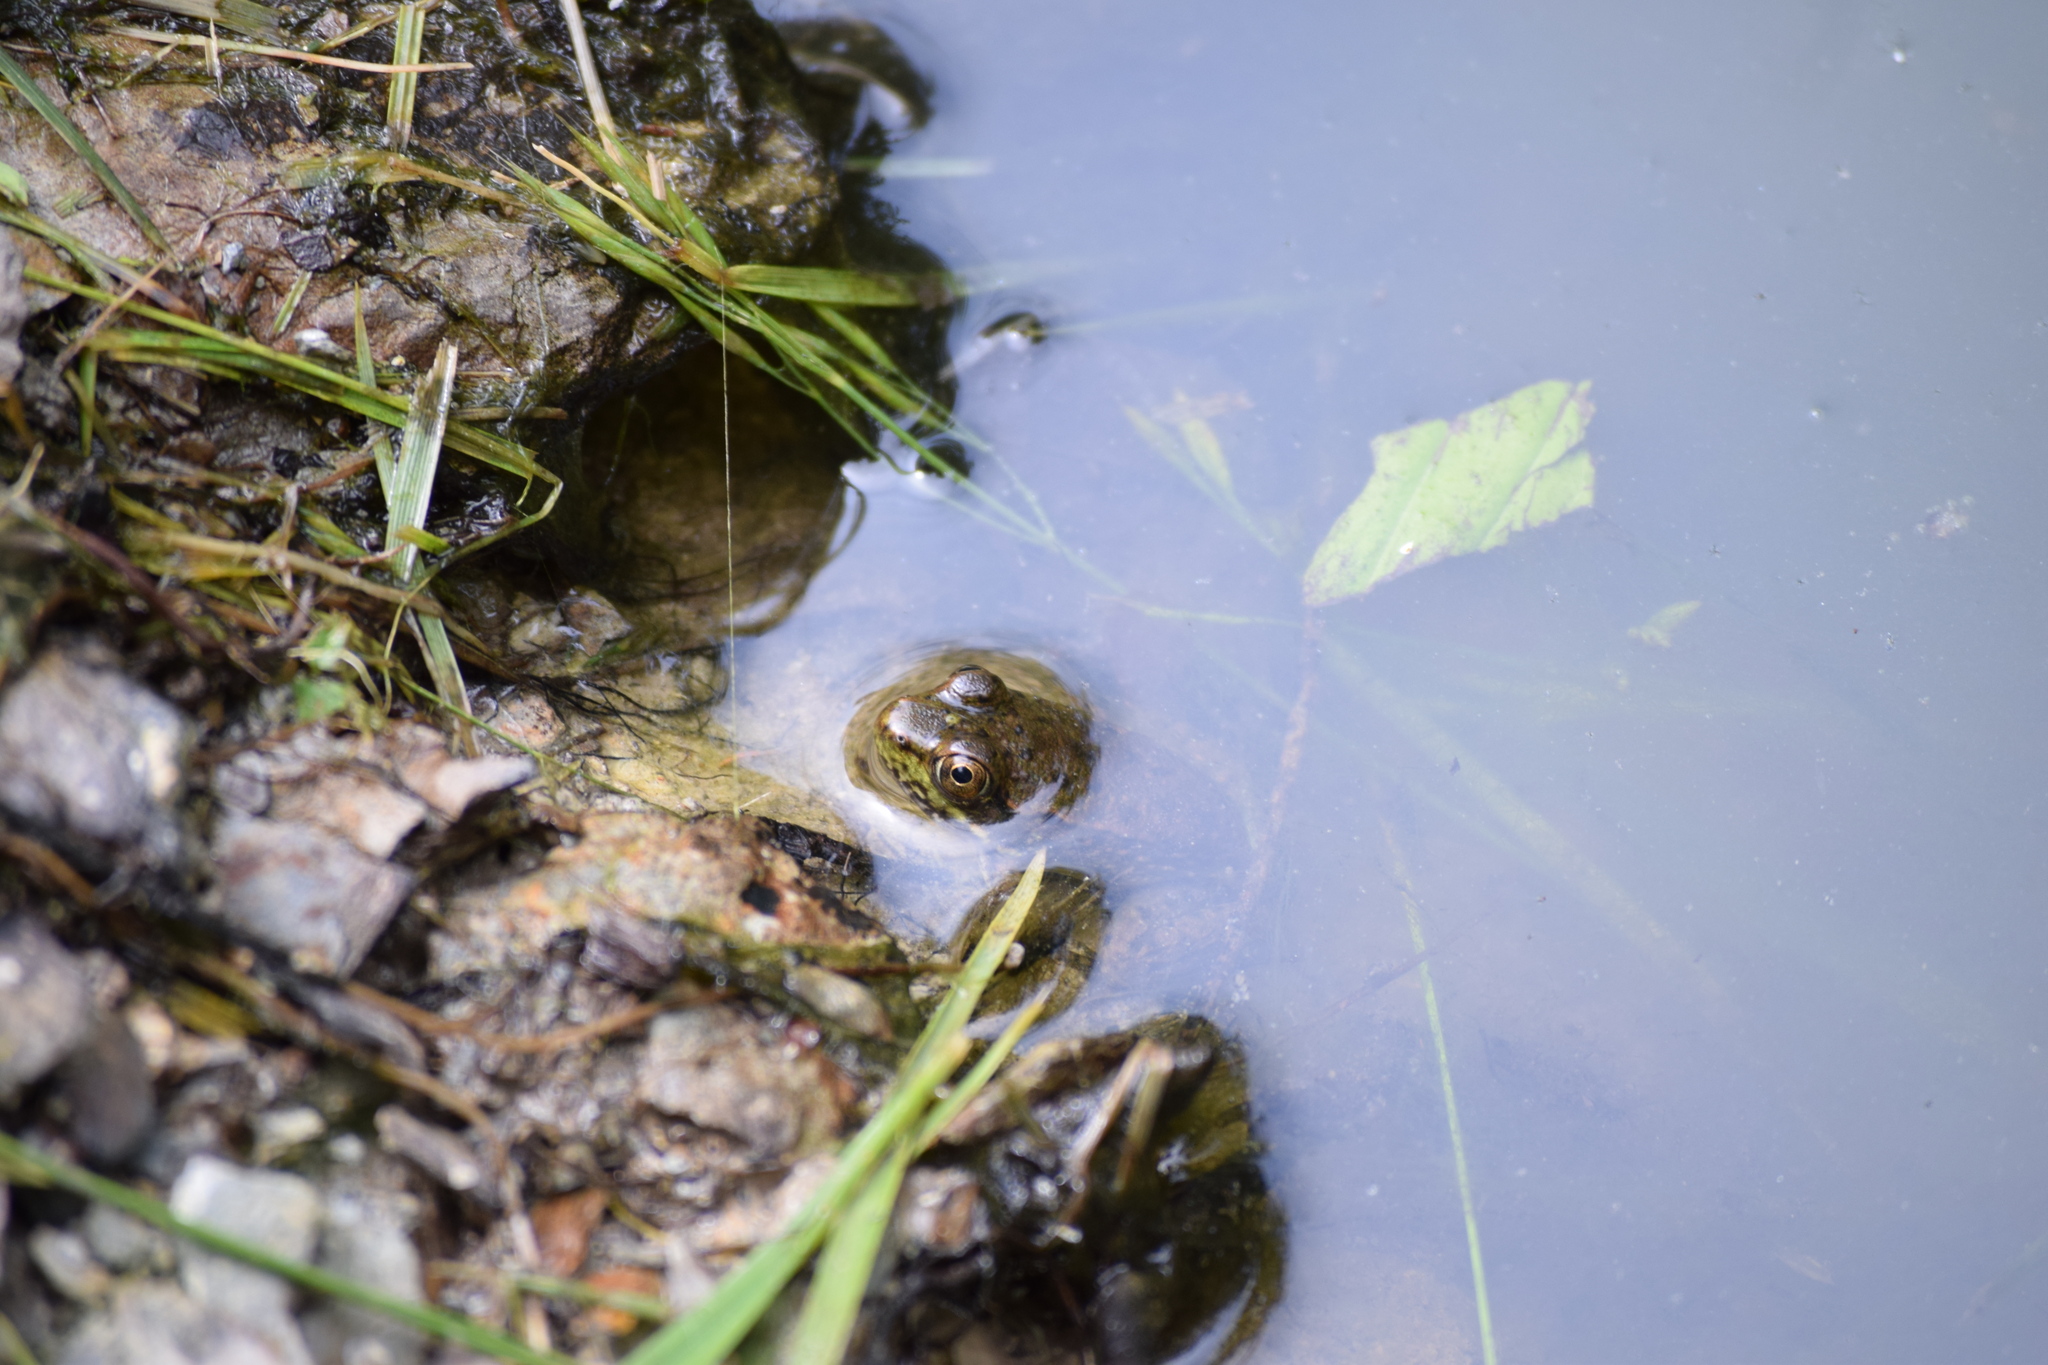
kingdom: Animalia
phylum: Chordata
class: Amphibia
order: Anura
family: Ranidae
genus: Lithobates
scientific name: Lithobates clamitans
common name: Green frog
